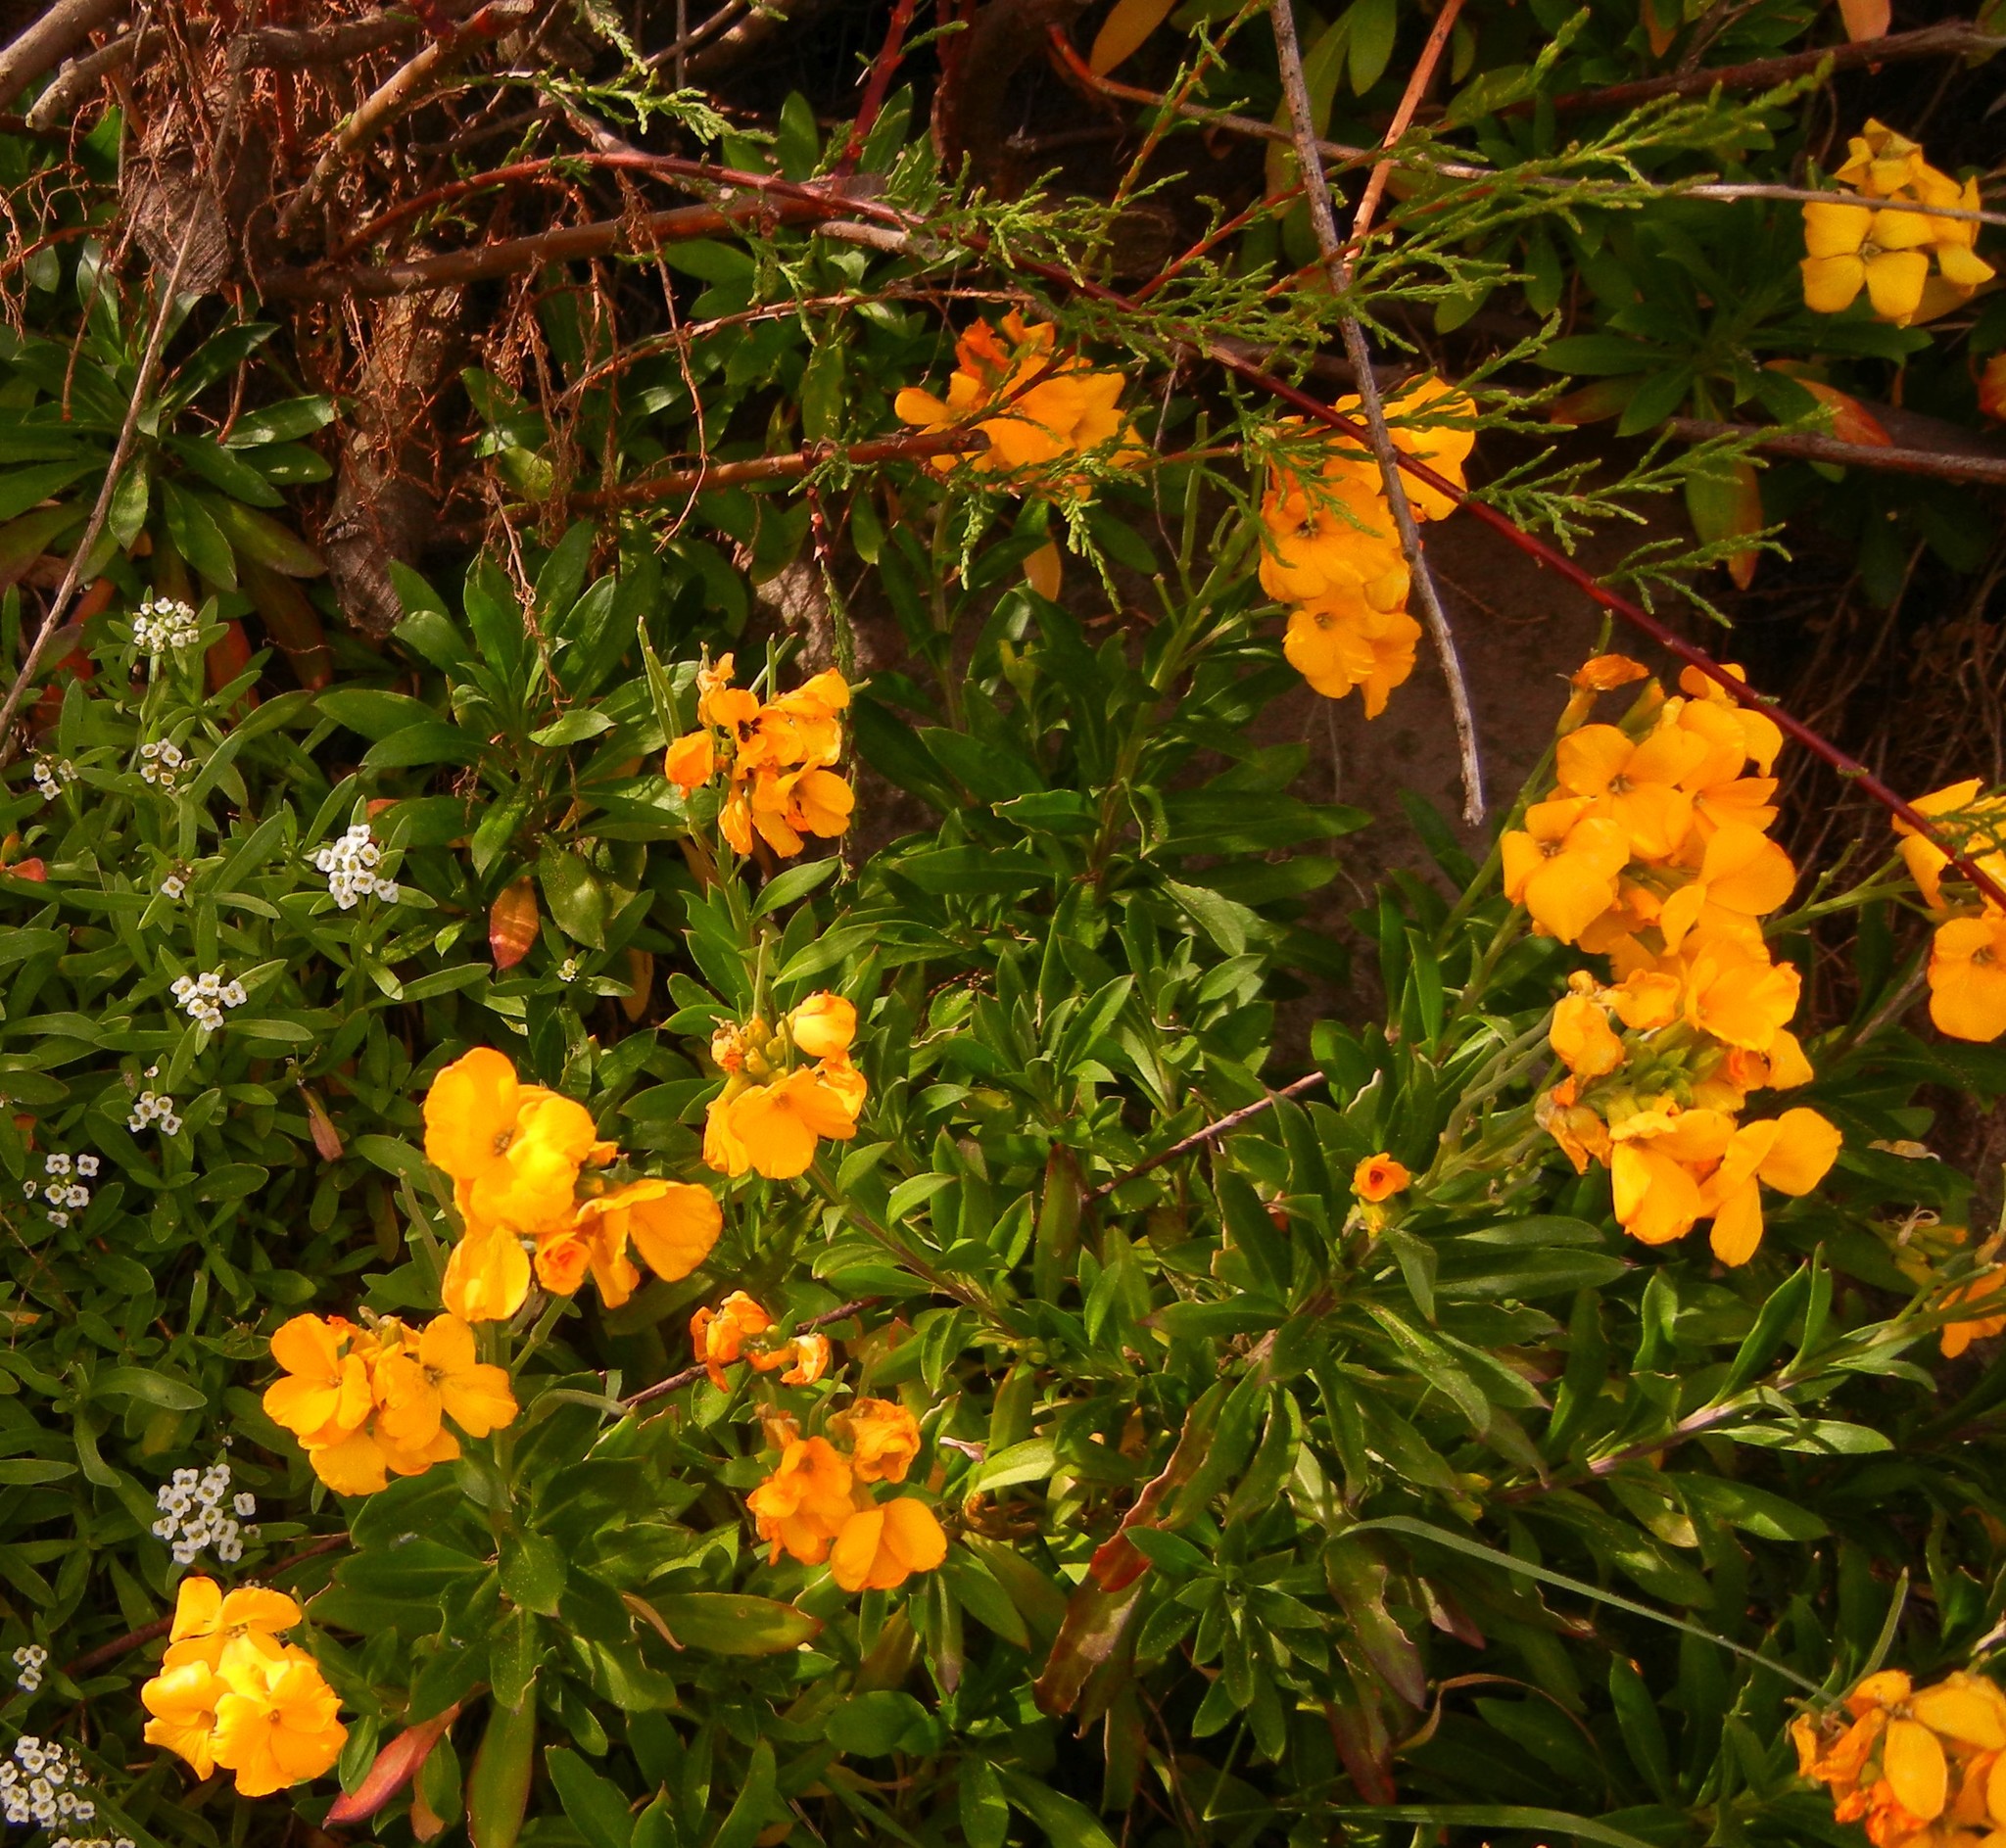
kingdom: Plantae
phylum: Tracheophyta
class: Magnoliopsida
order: Brassicales
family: Brassicaceae
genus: Erysimum
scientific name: Erysimum cheiri
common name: Wallflower
